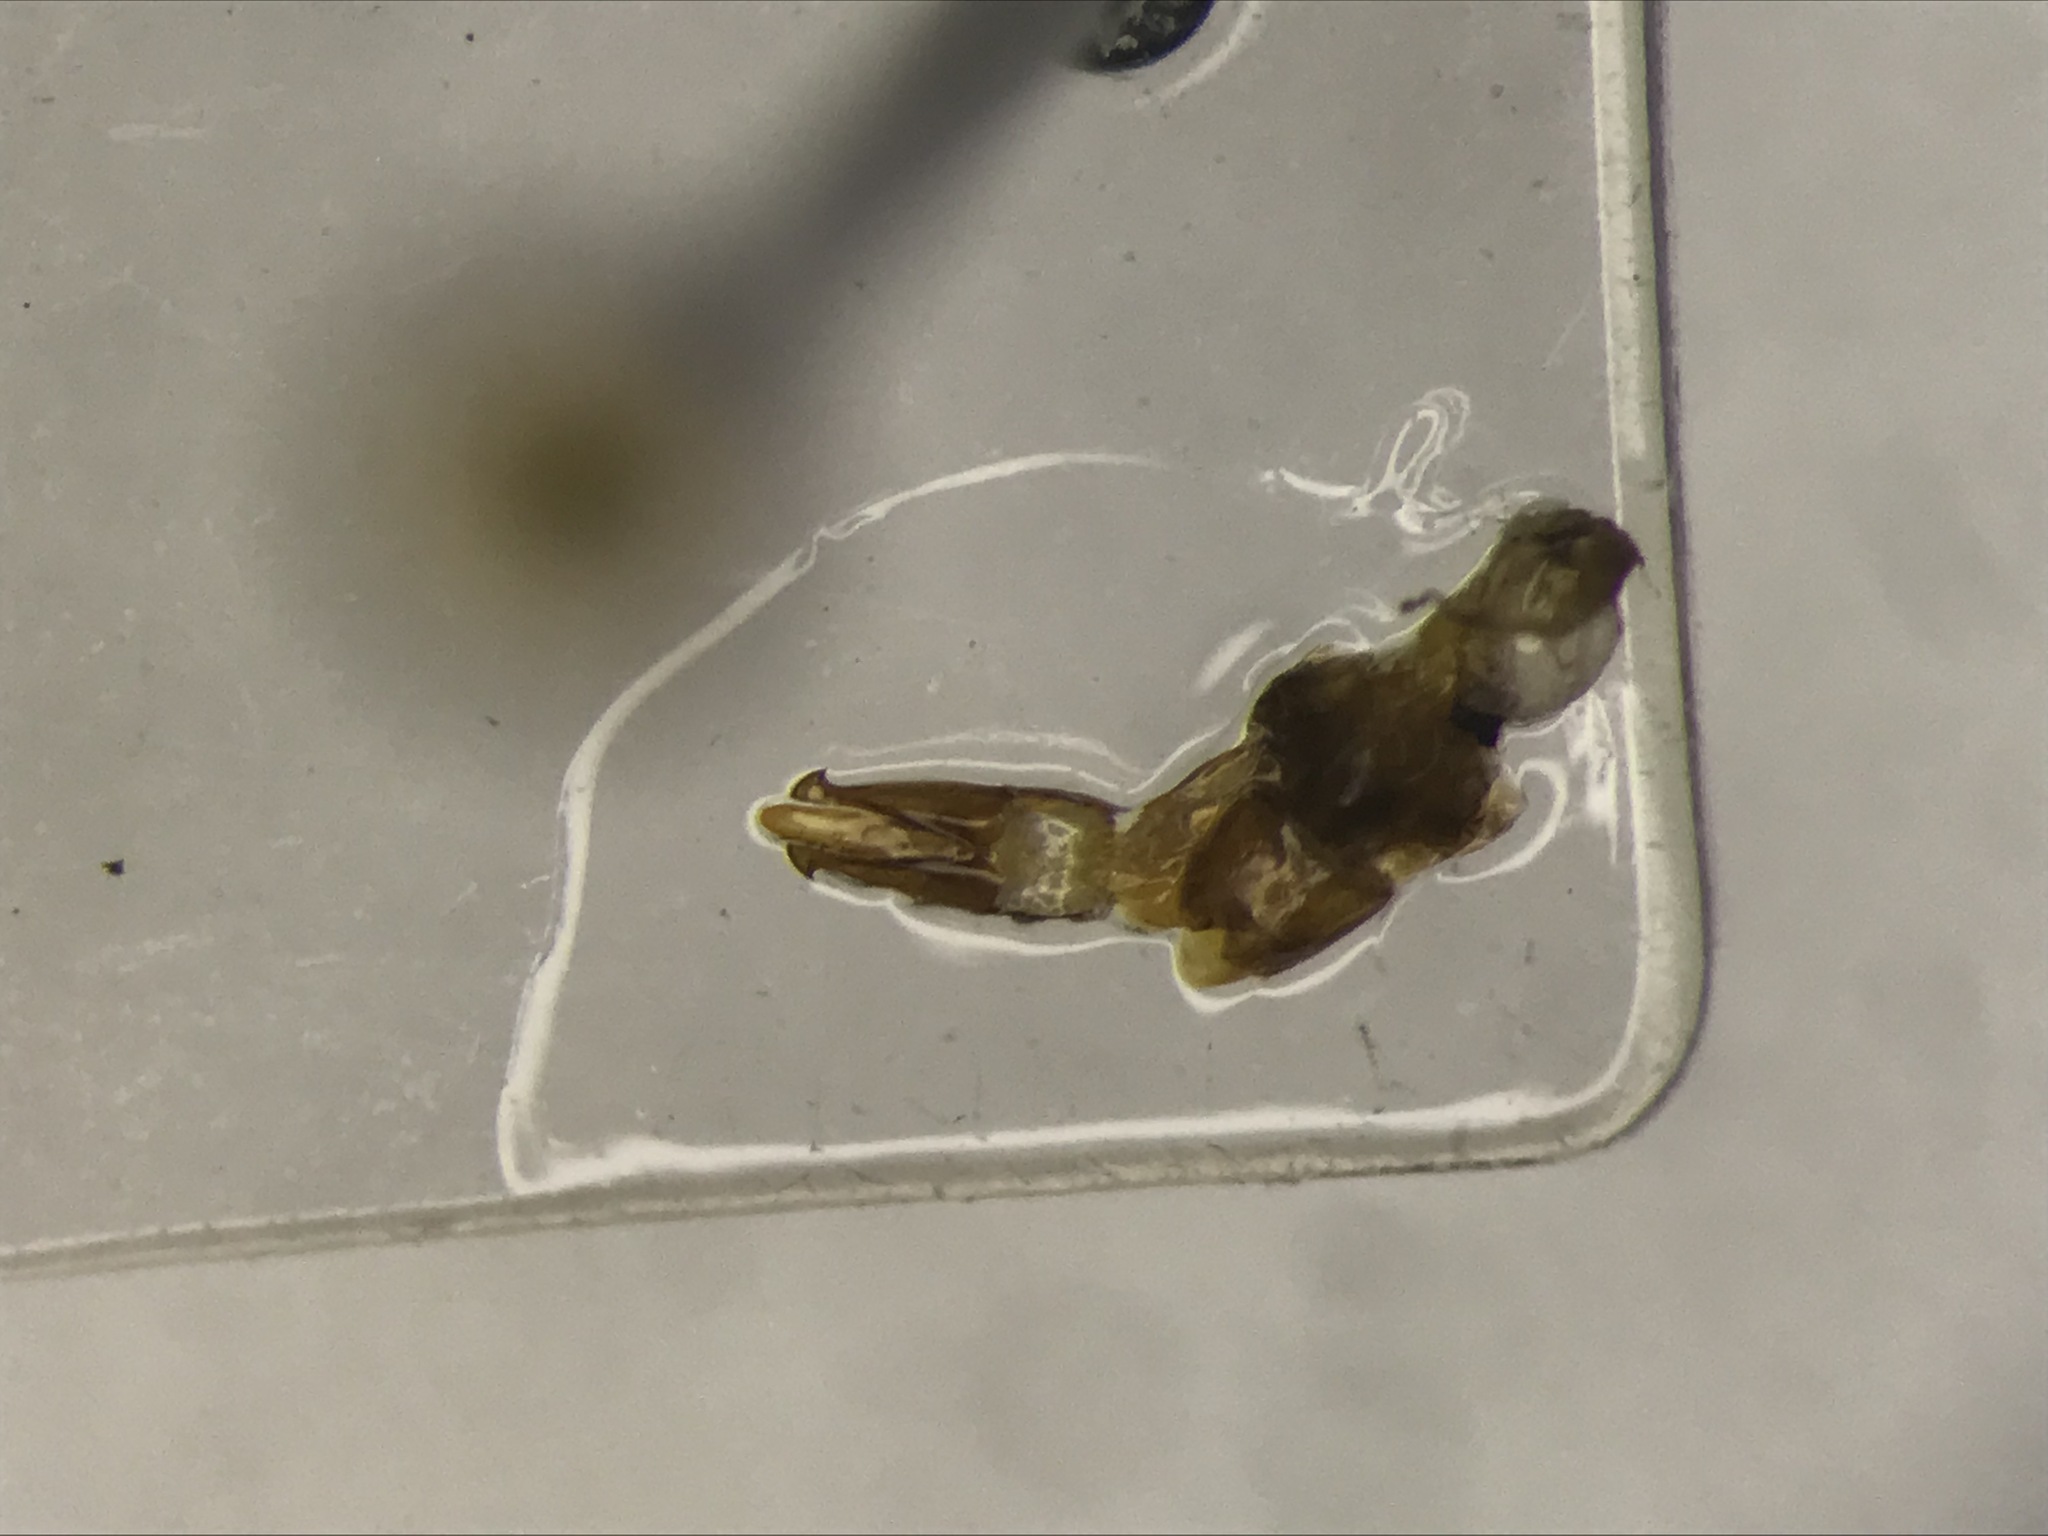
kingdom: Animalia
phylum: Arthropoda
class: Insecta
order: Coleoptera
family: Elateridae
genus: Liotrichus
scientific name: Liotrichus falsificus
